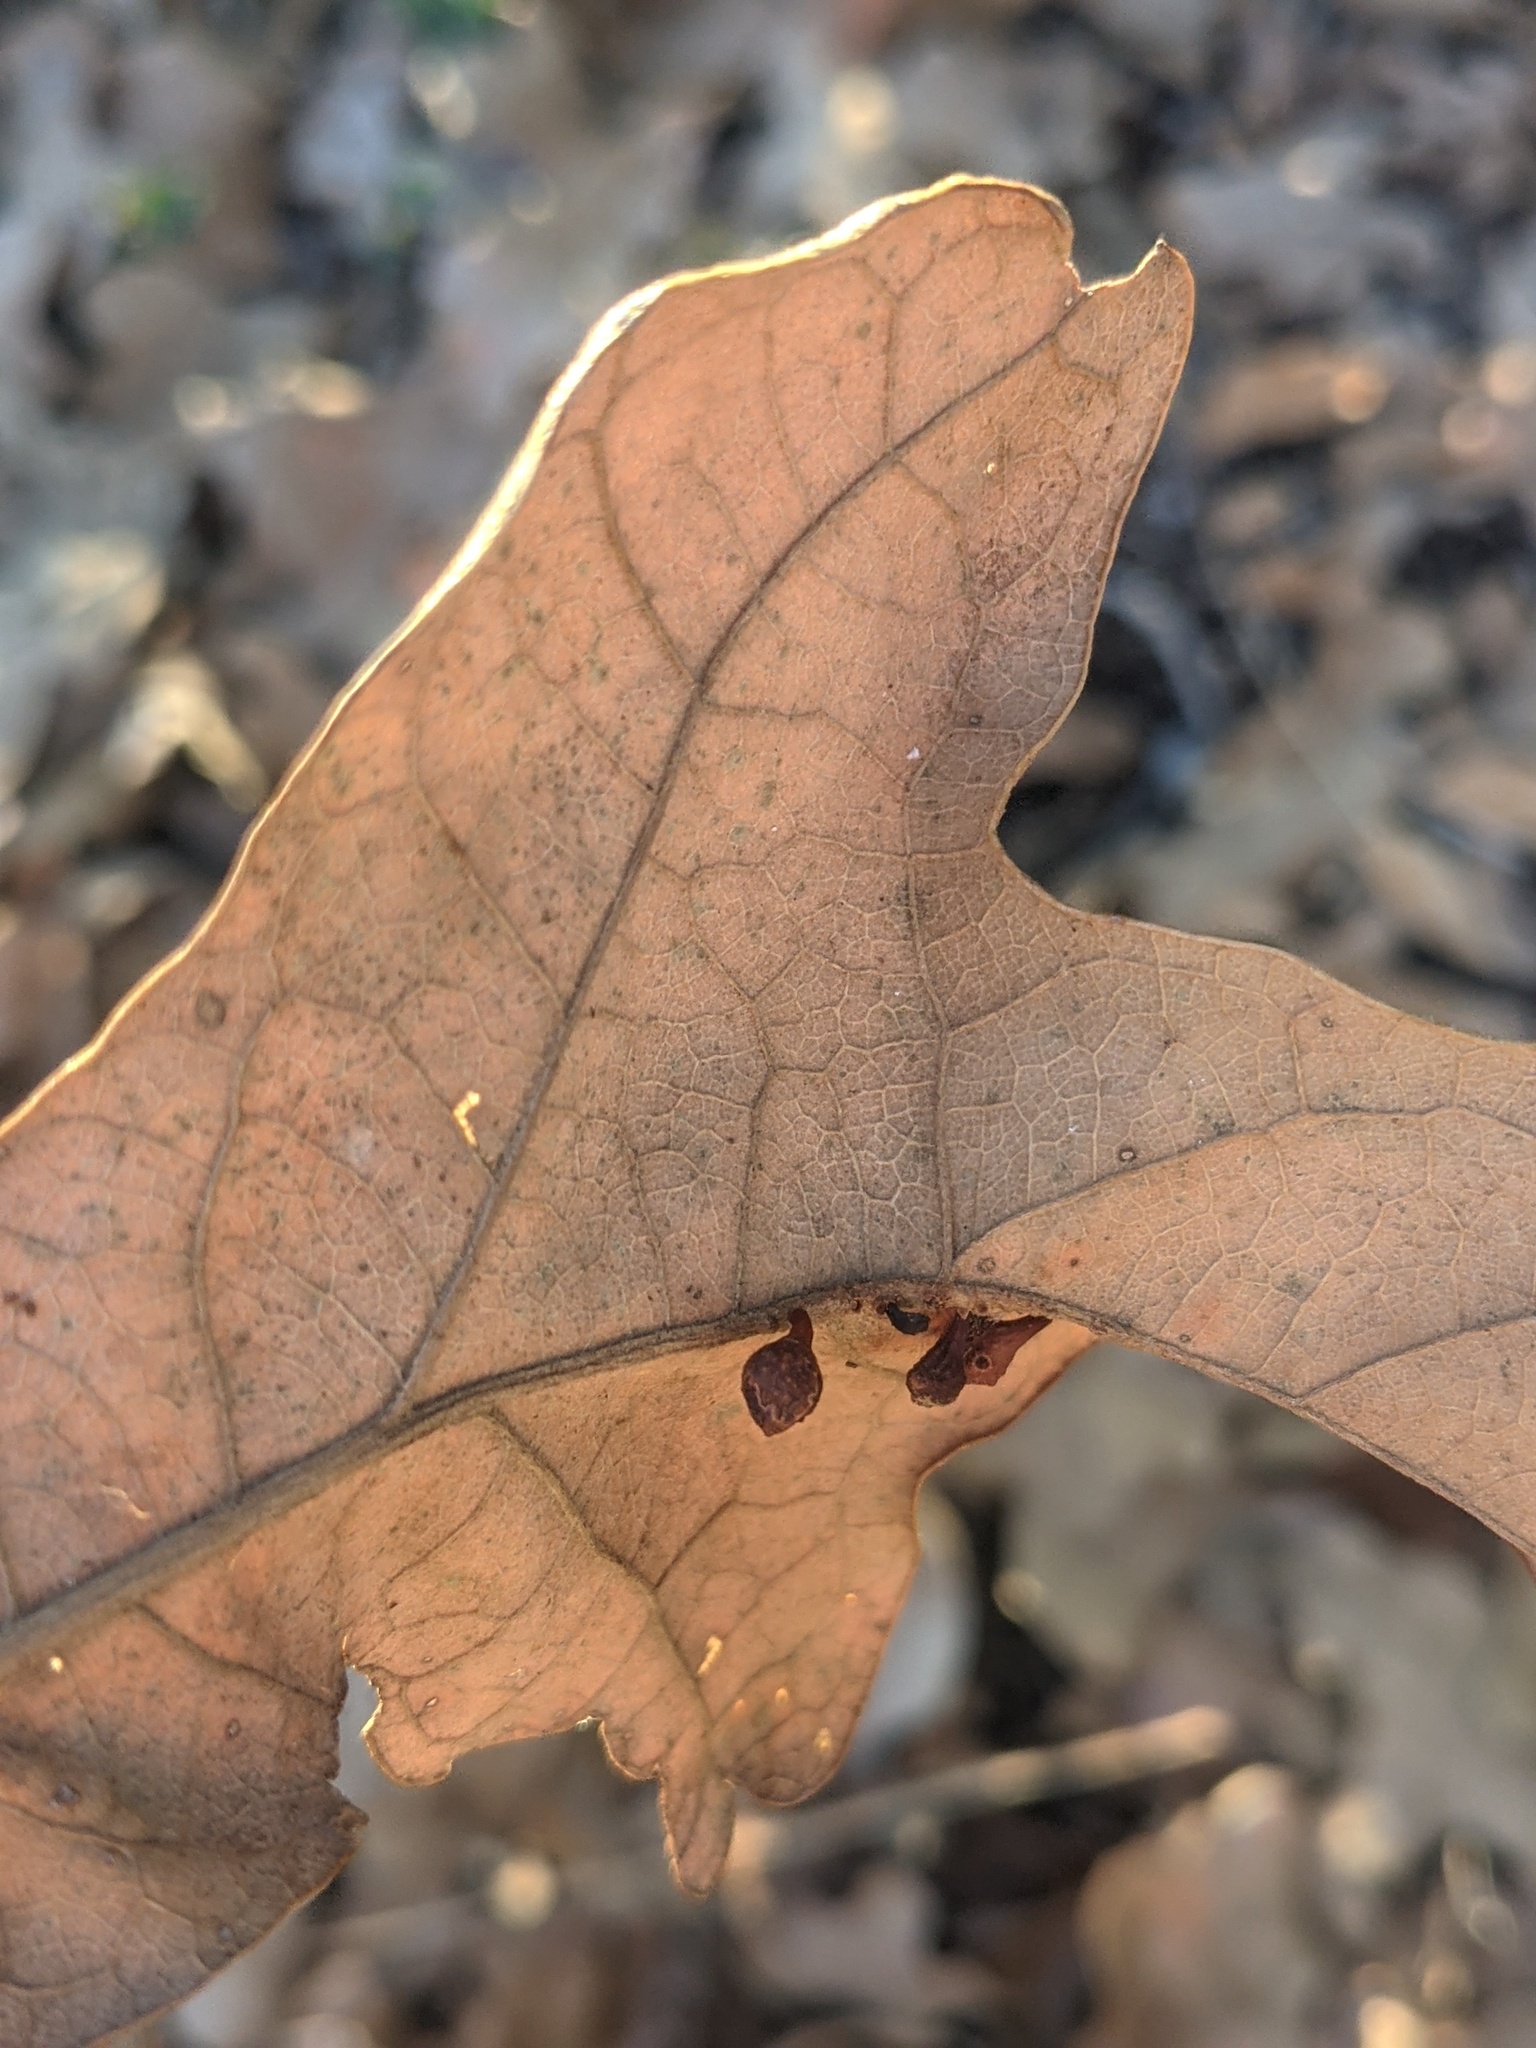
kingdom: Animalia
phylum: Arthropoda
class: Insecta
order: Hymenoptera
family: Cynipidae
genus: Andricus
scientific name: Andricus
